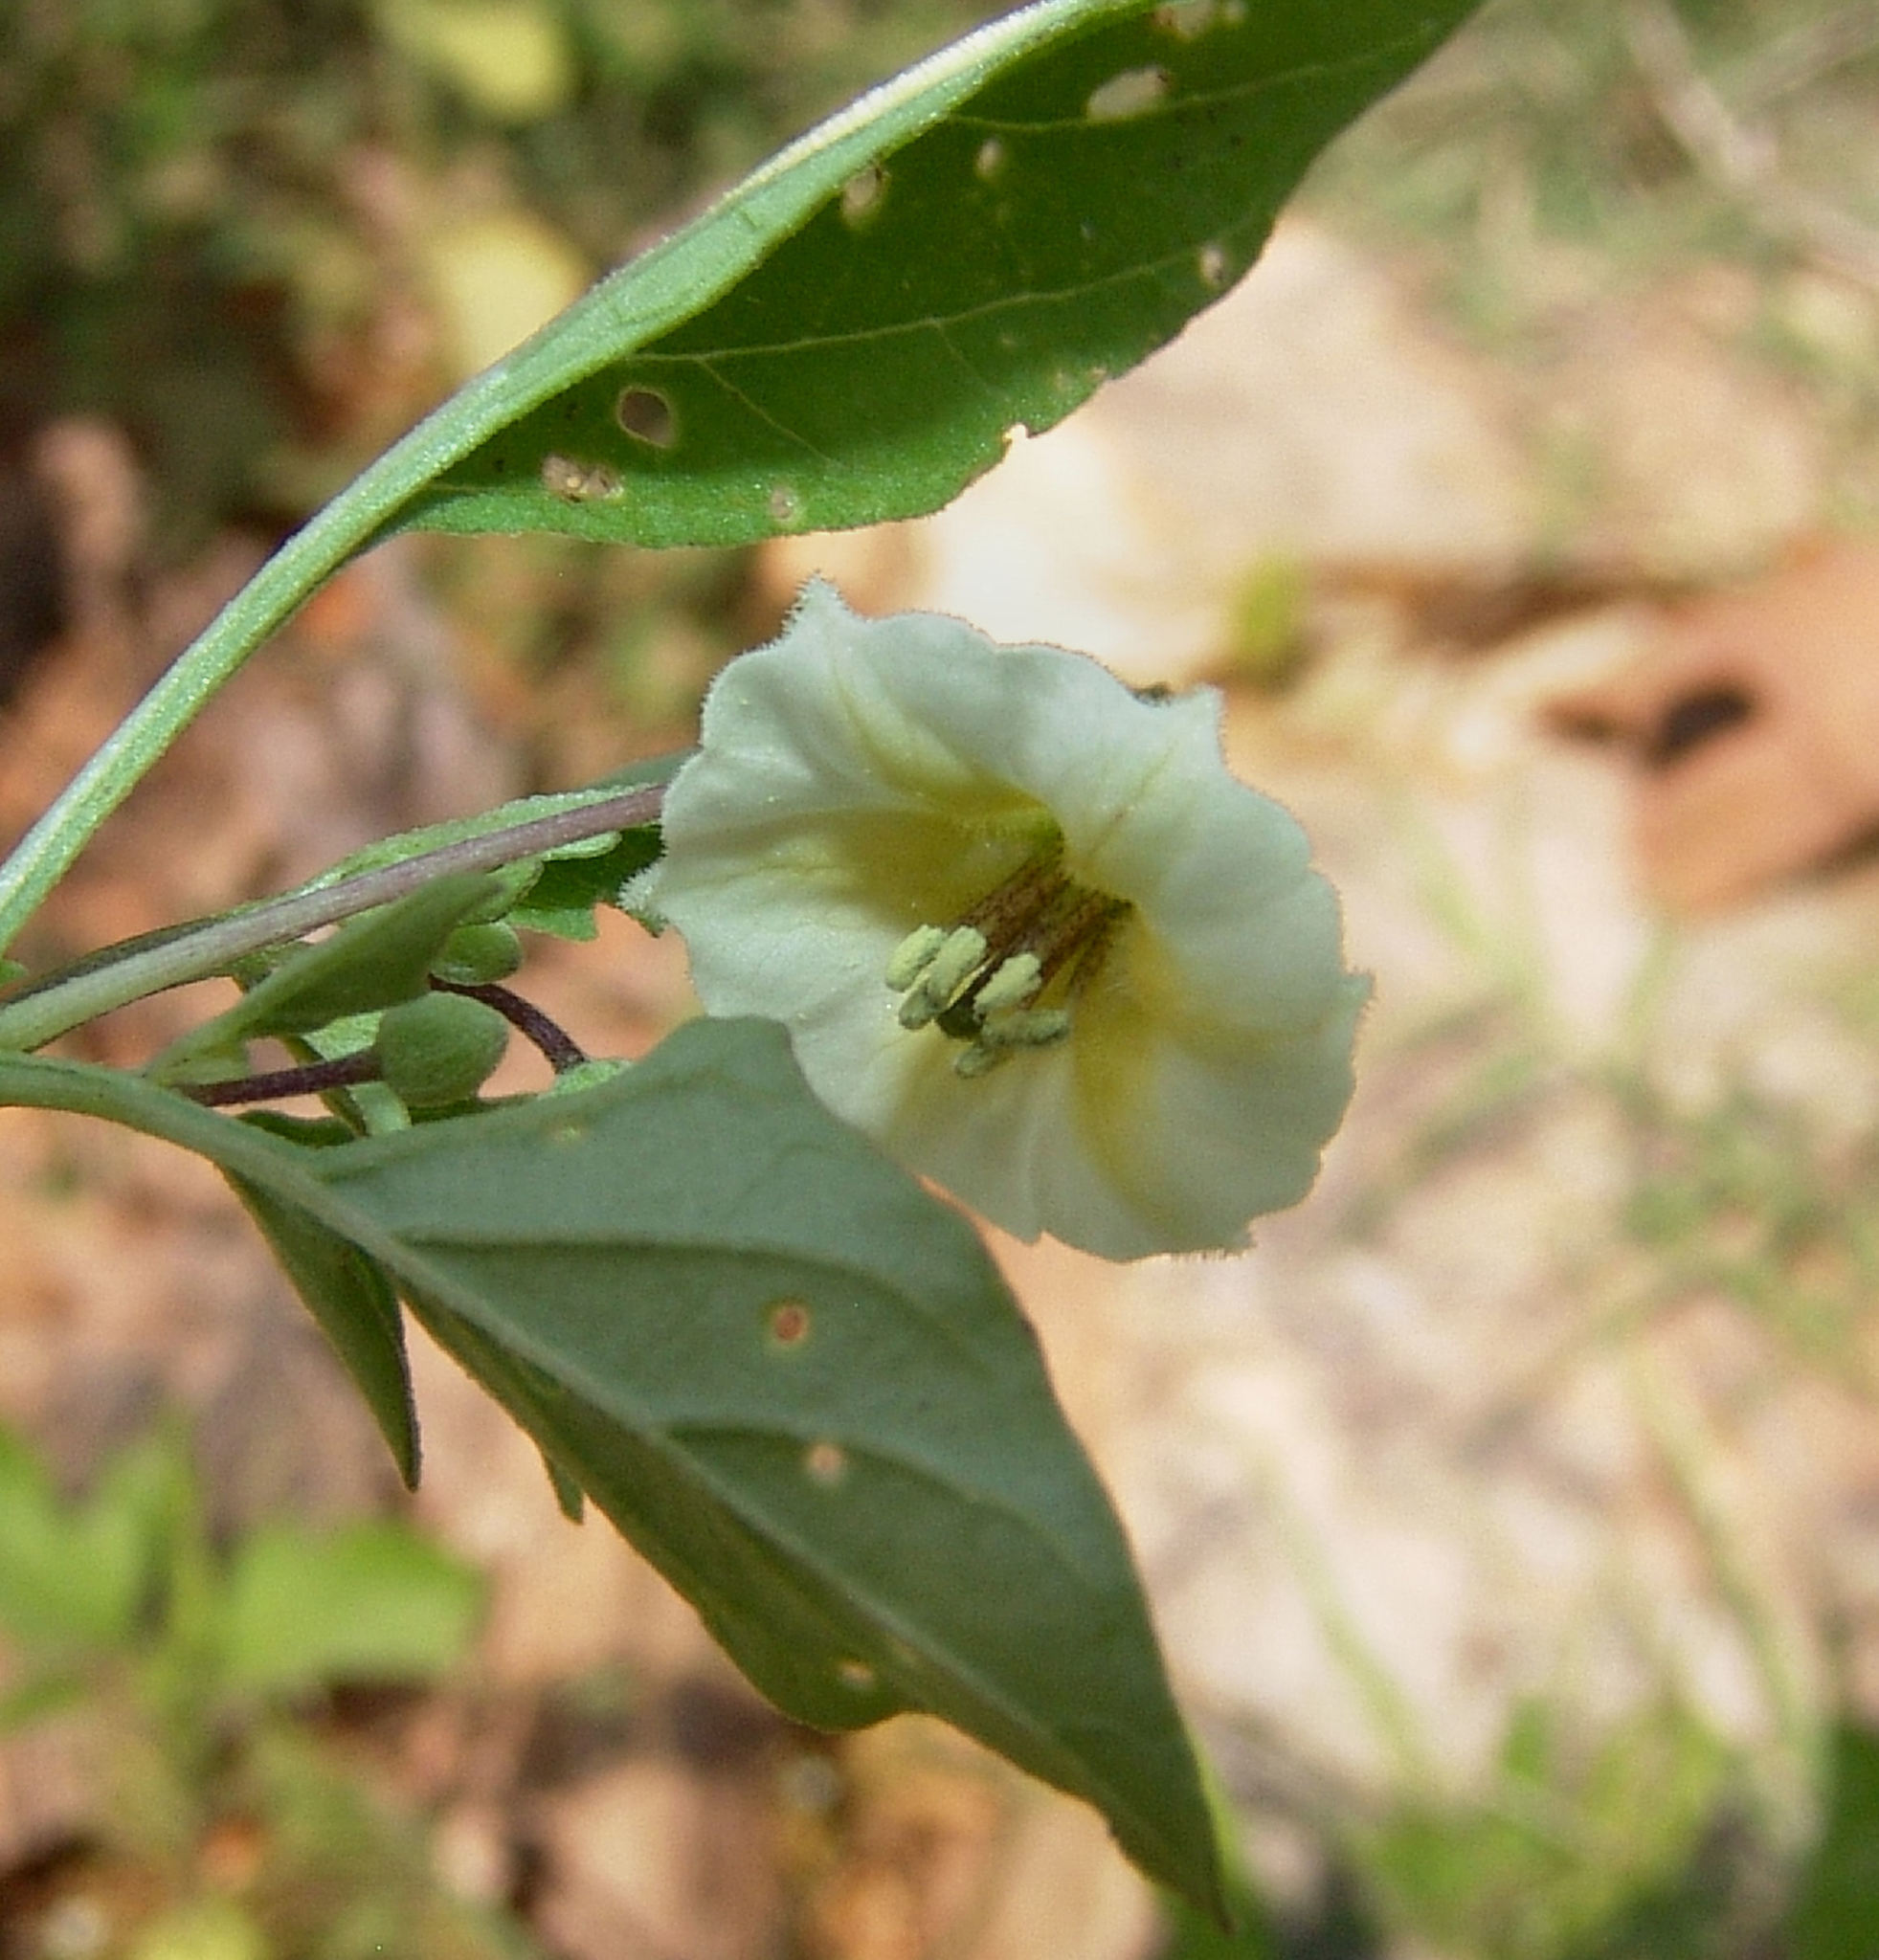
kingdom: Plantae
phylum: Tracheophyta
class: Magnoliopsida
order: Solanales
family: Solanaceae
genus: Physalis
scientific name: Physalis angulata
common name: Angular winter-cherry
